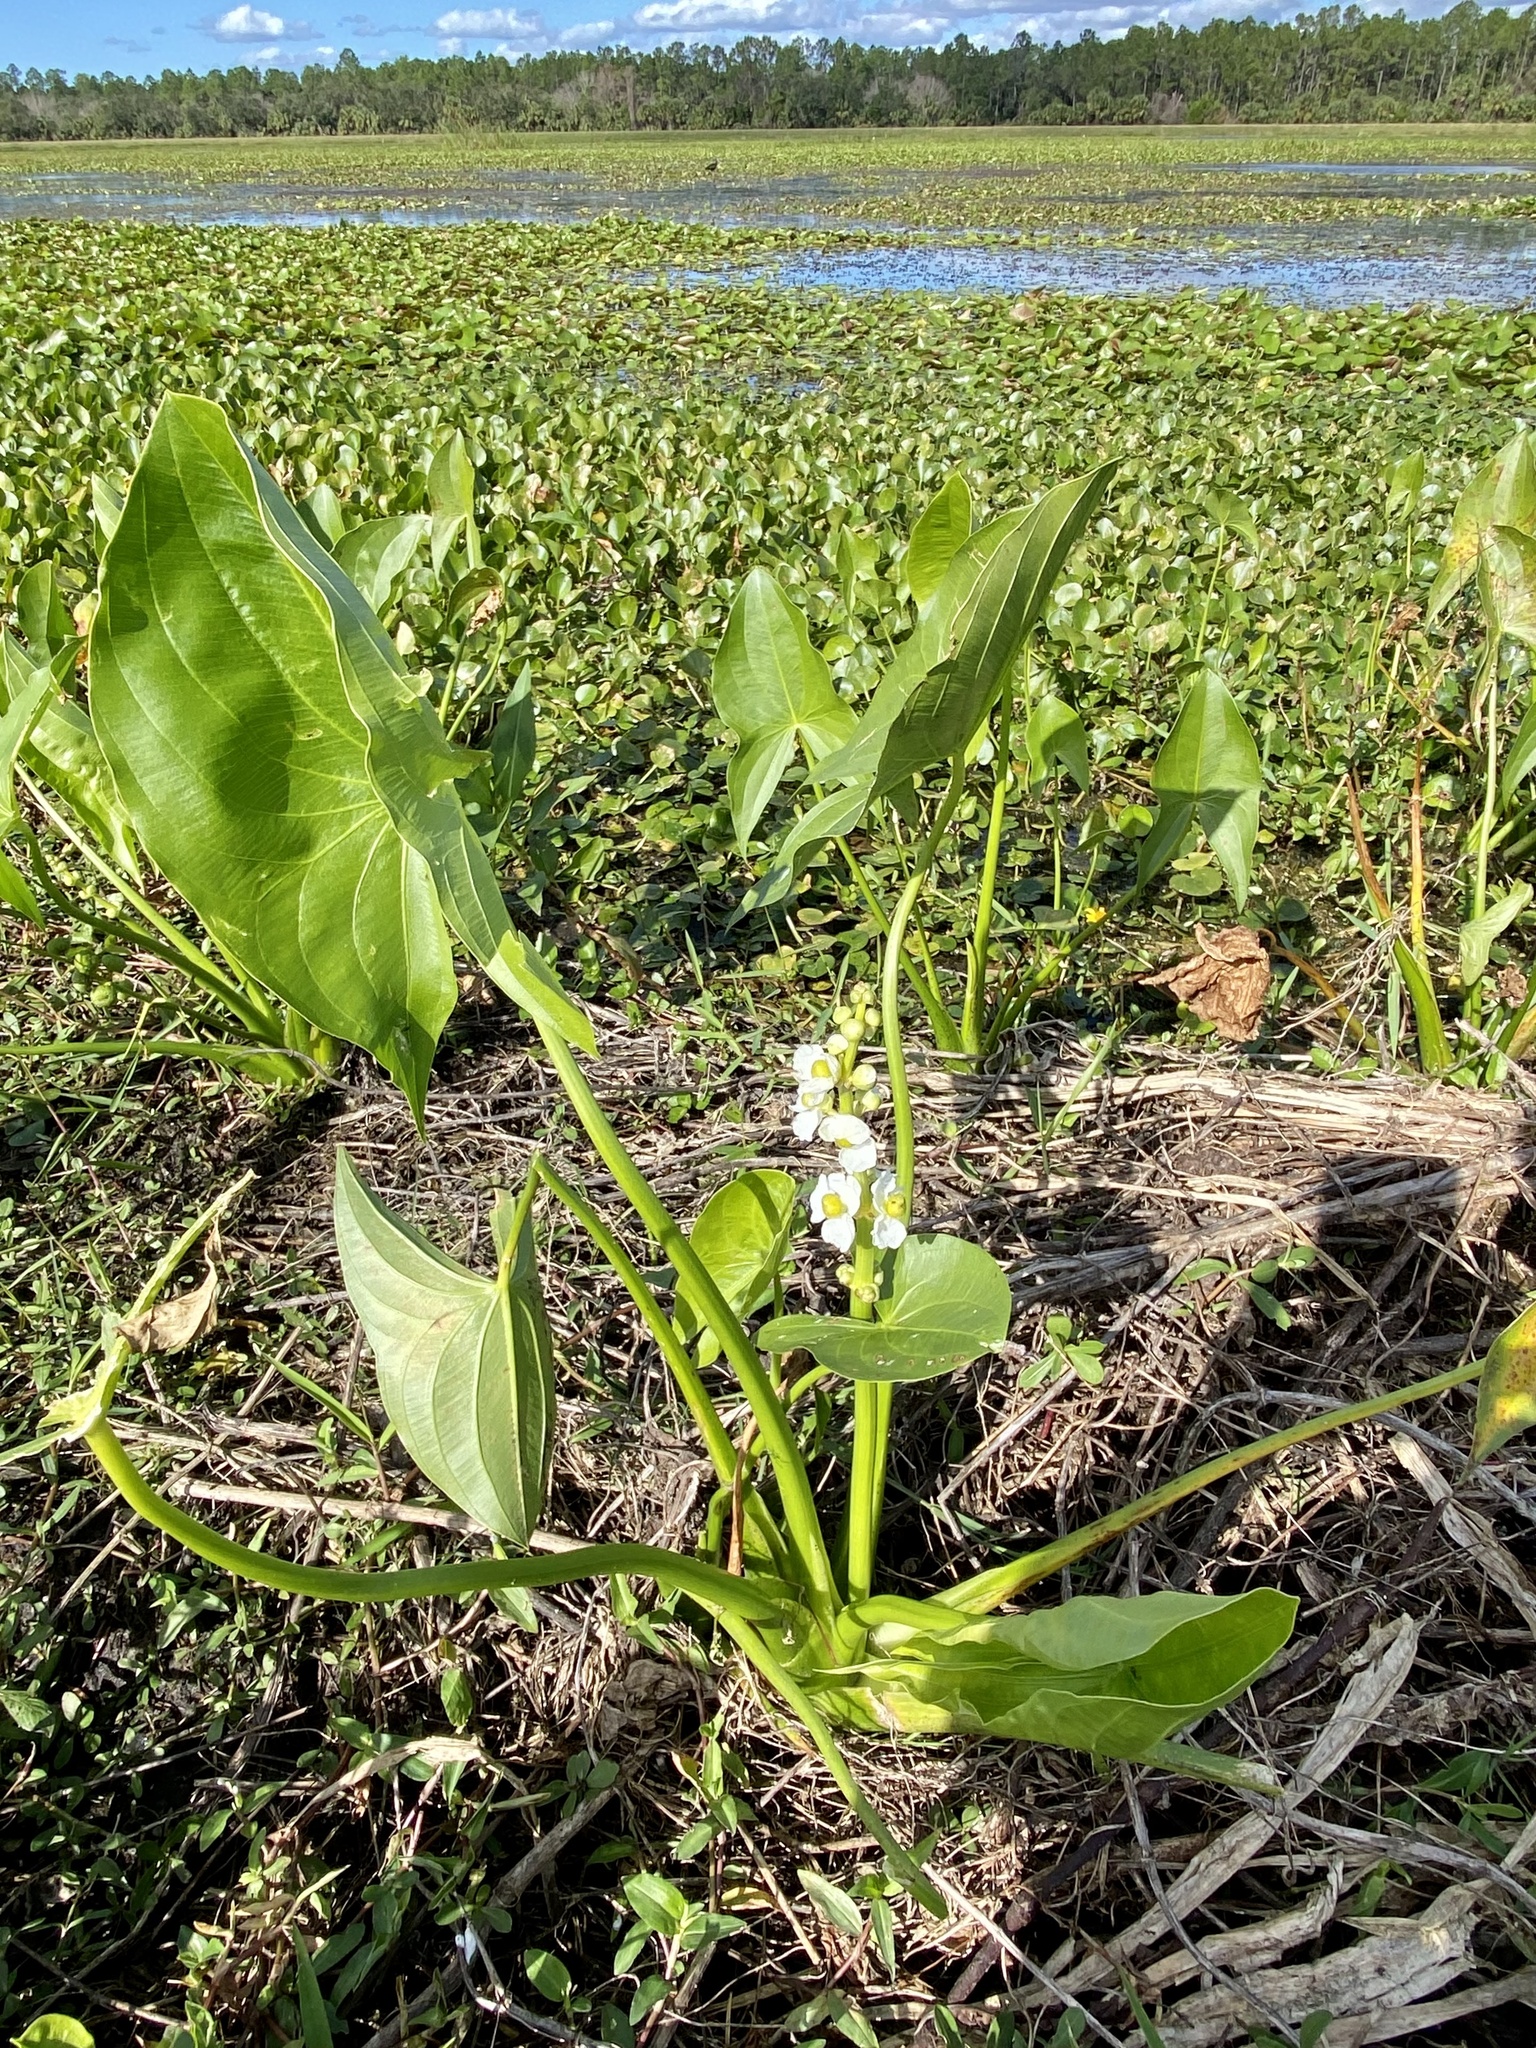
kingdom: Plantae
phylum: Tracheophyta
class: Liliopsida
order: Alismatales
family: Alismataceae
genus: Sagittaria
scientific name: Sagittaria latifolia
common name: Duck-potato
